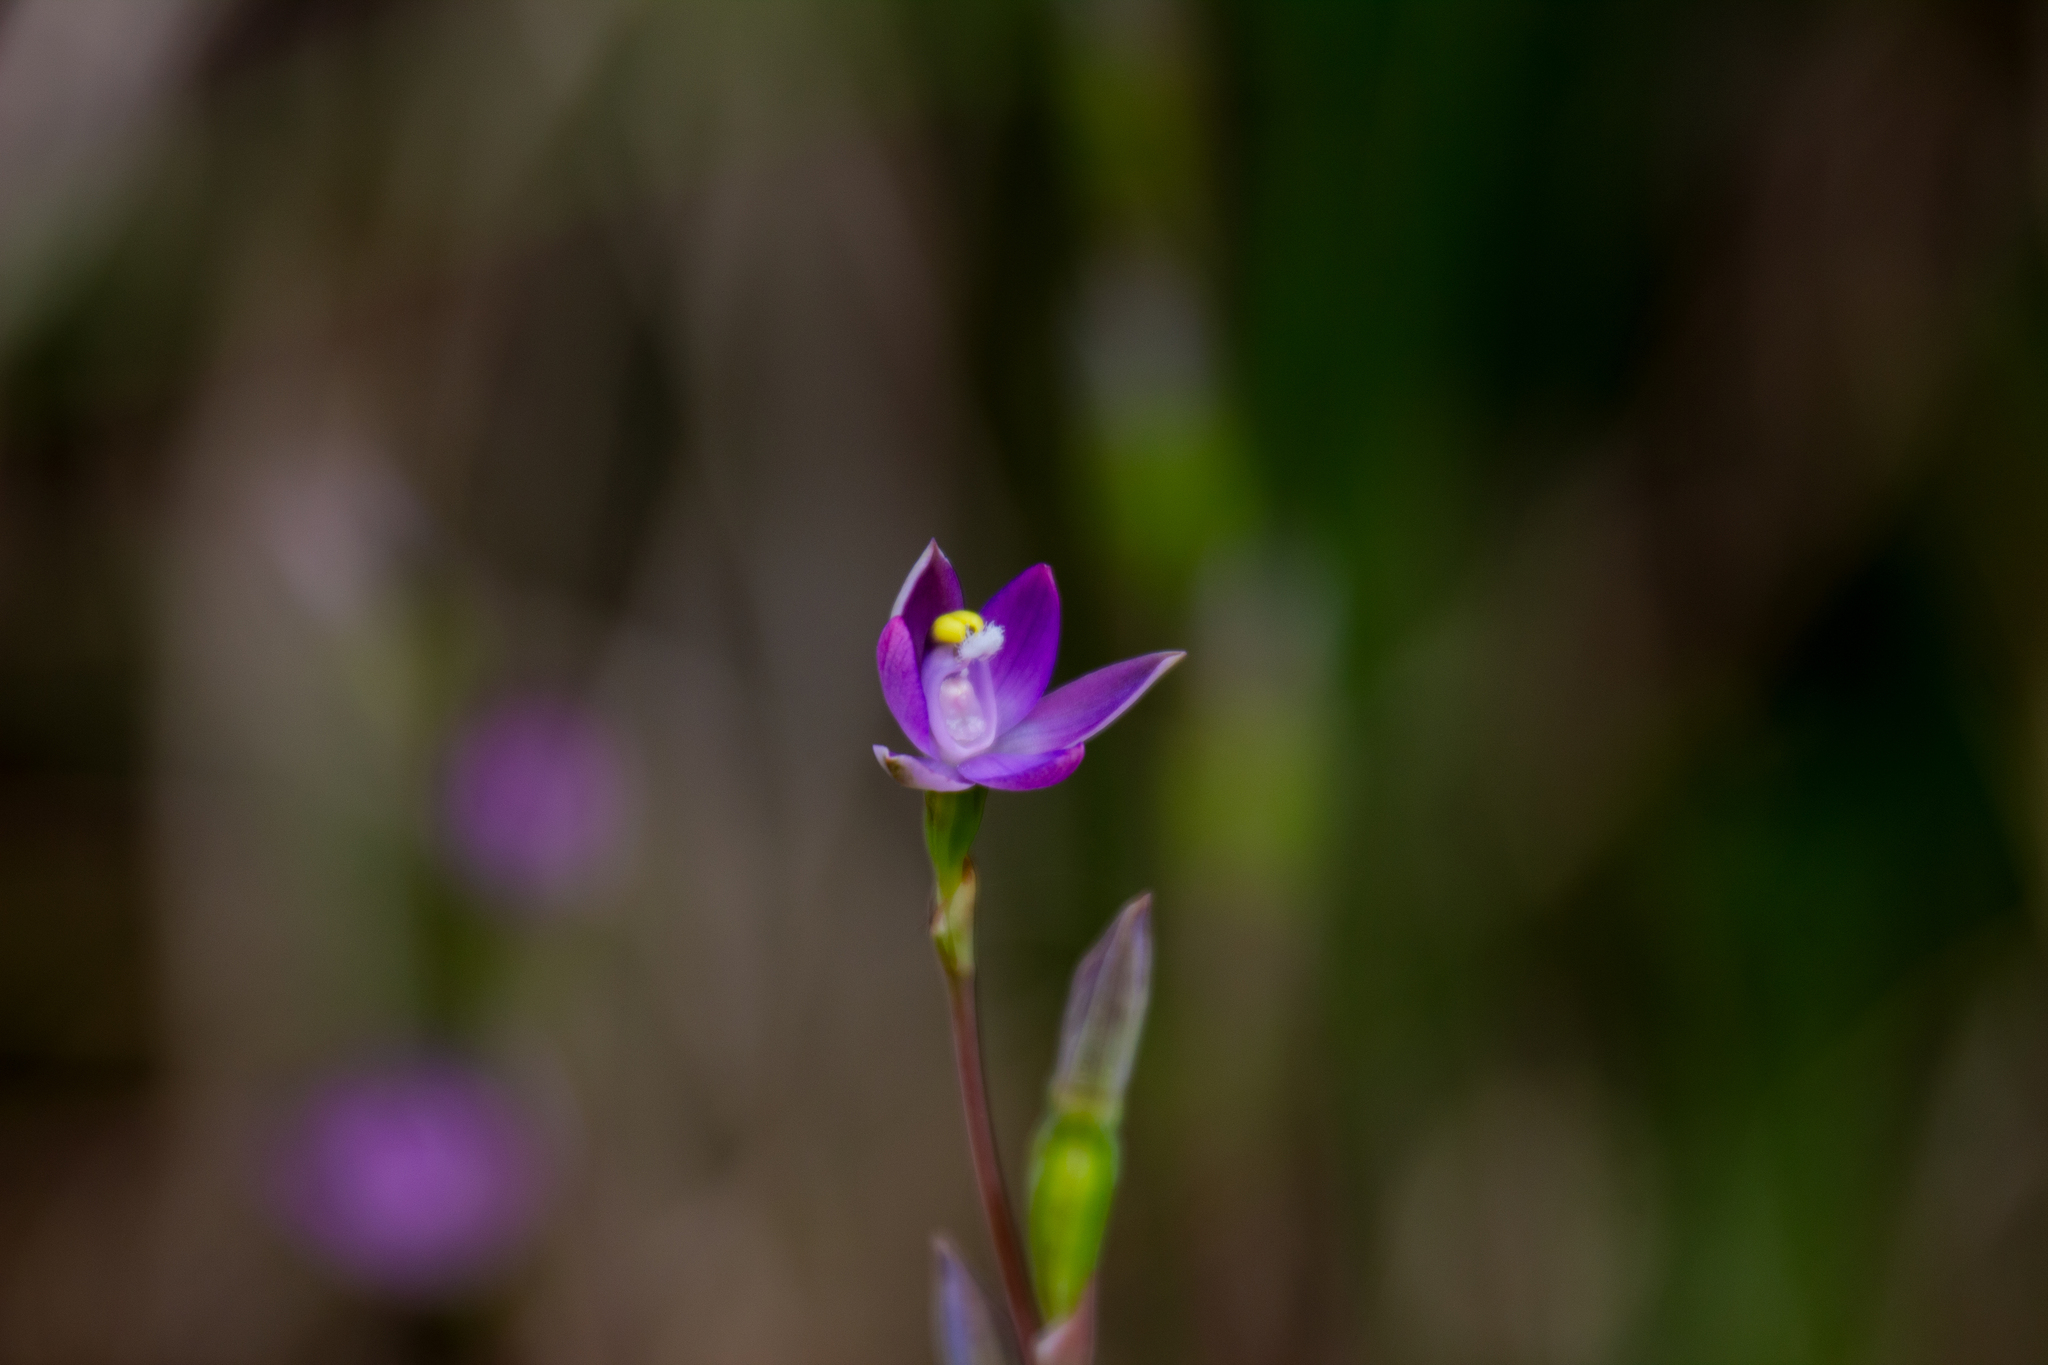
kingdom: Plantae
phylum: Tracheophyta
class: Liliopsida
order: Asparagales
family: Orchidaceae
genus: Thelymitra
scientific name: Thelymitra pauciflora
